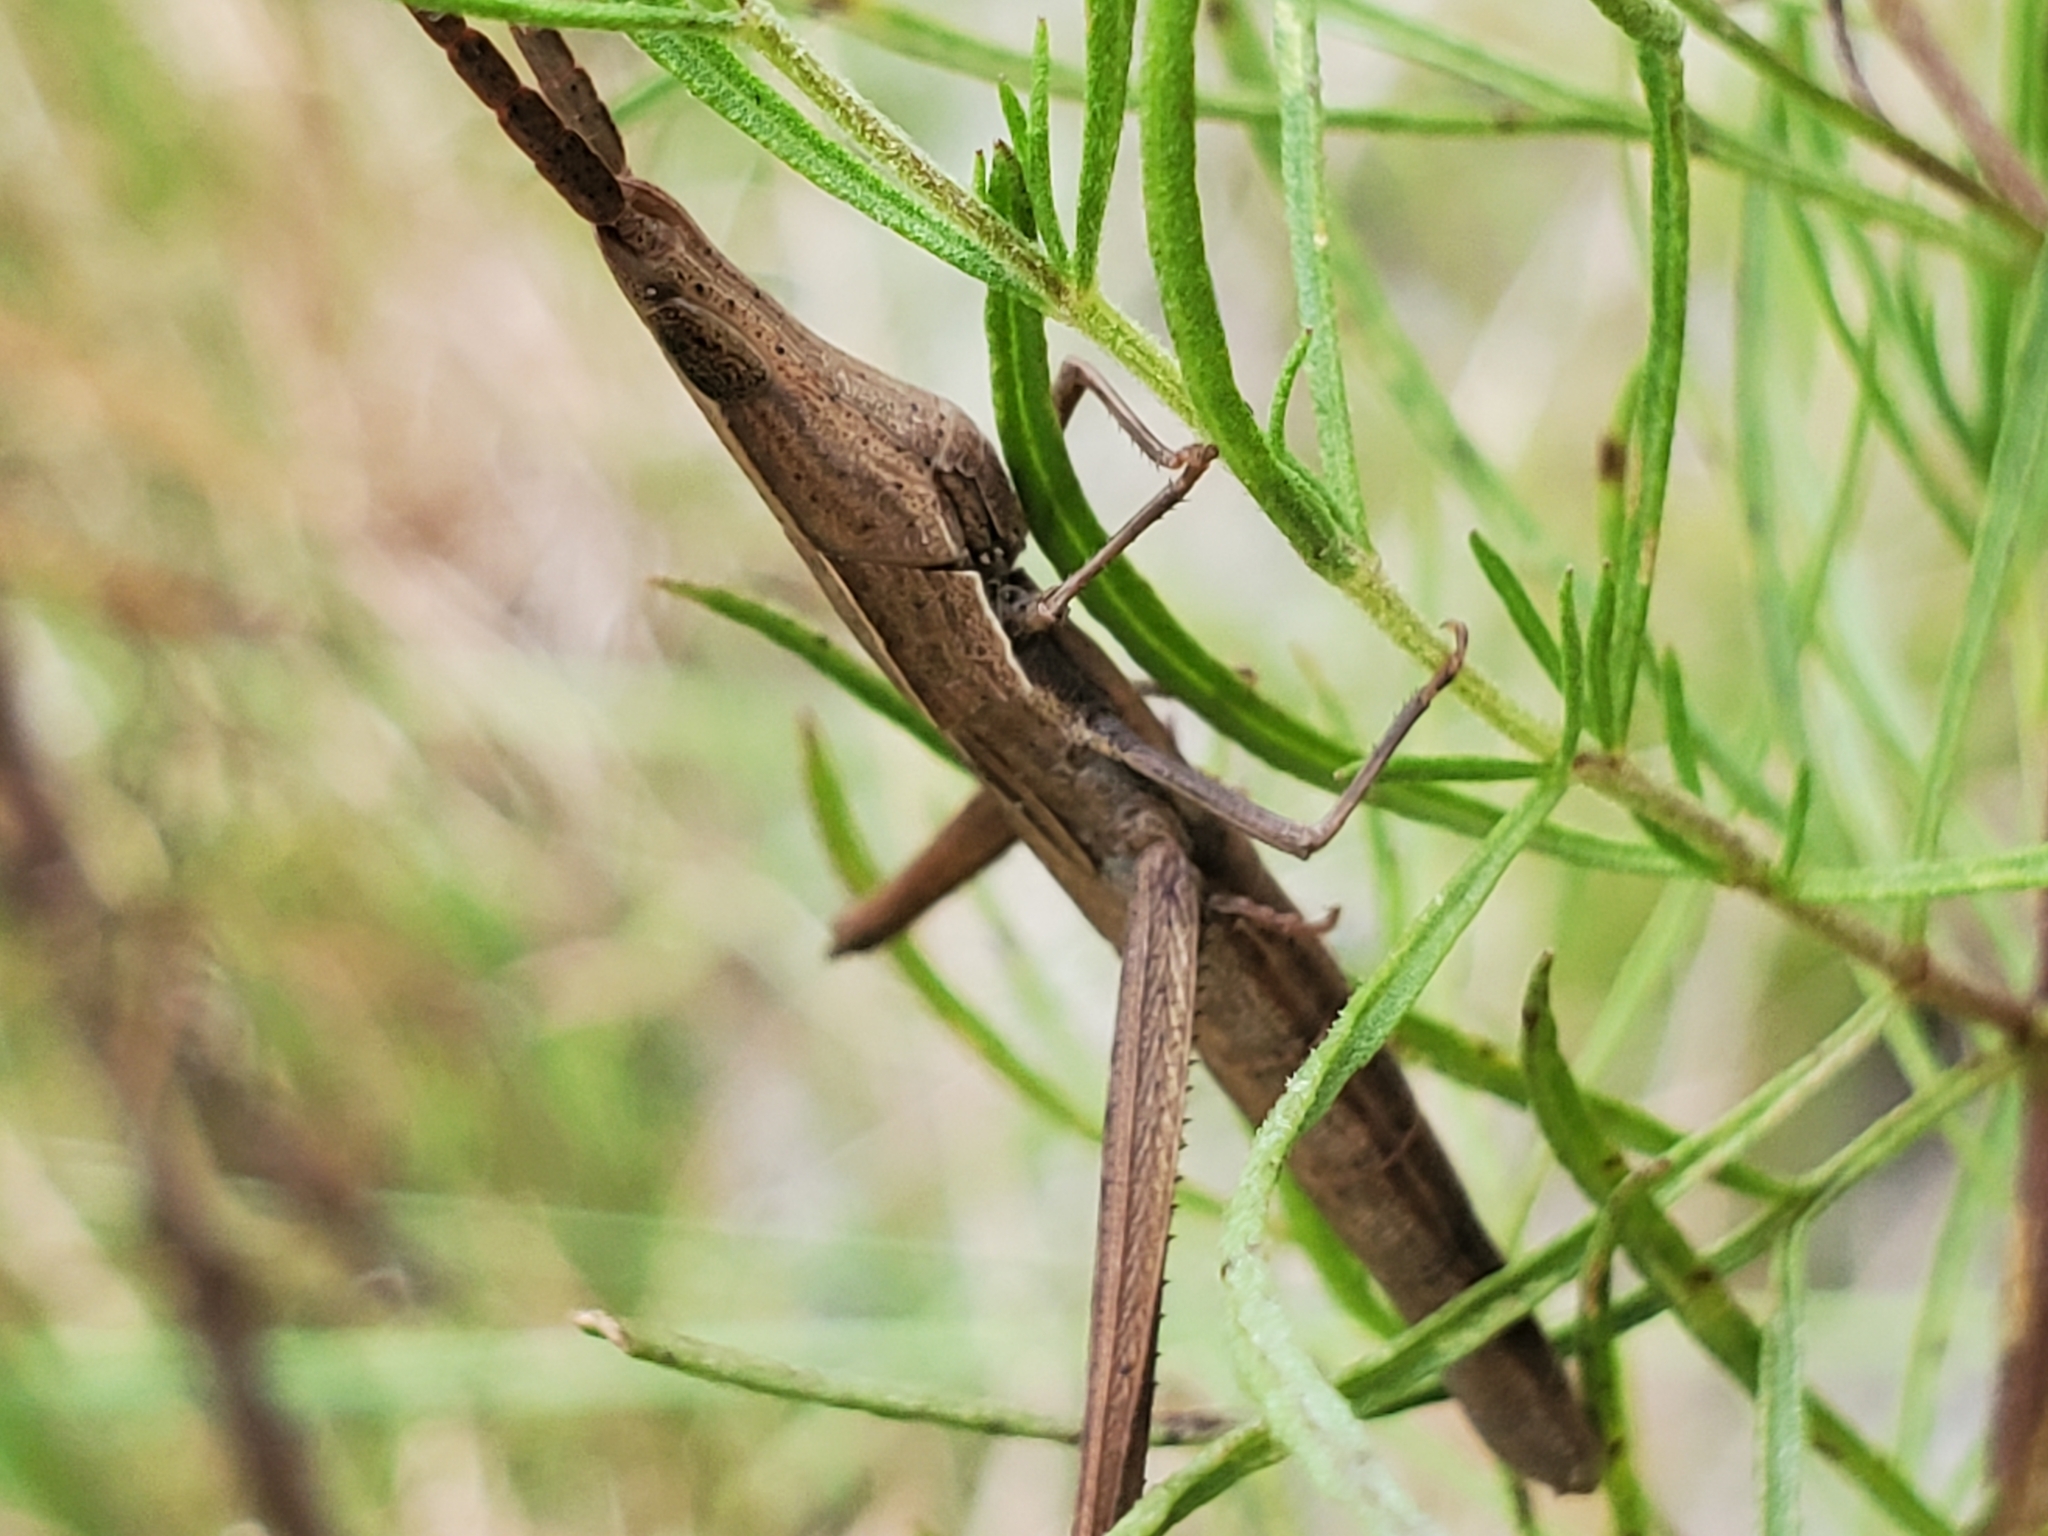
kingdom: Animalia
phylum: Arthropoda
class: Insecta
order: Orthoptera
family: Acrididae
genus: Achurum
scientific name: Achurum carinatum
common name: Long-headed toothpick grasshopper
